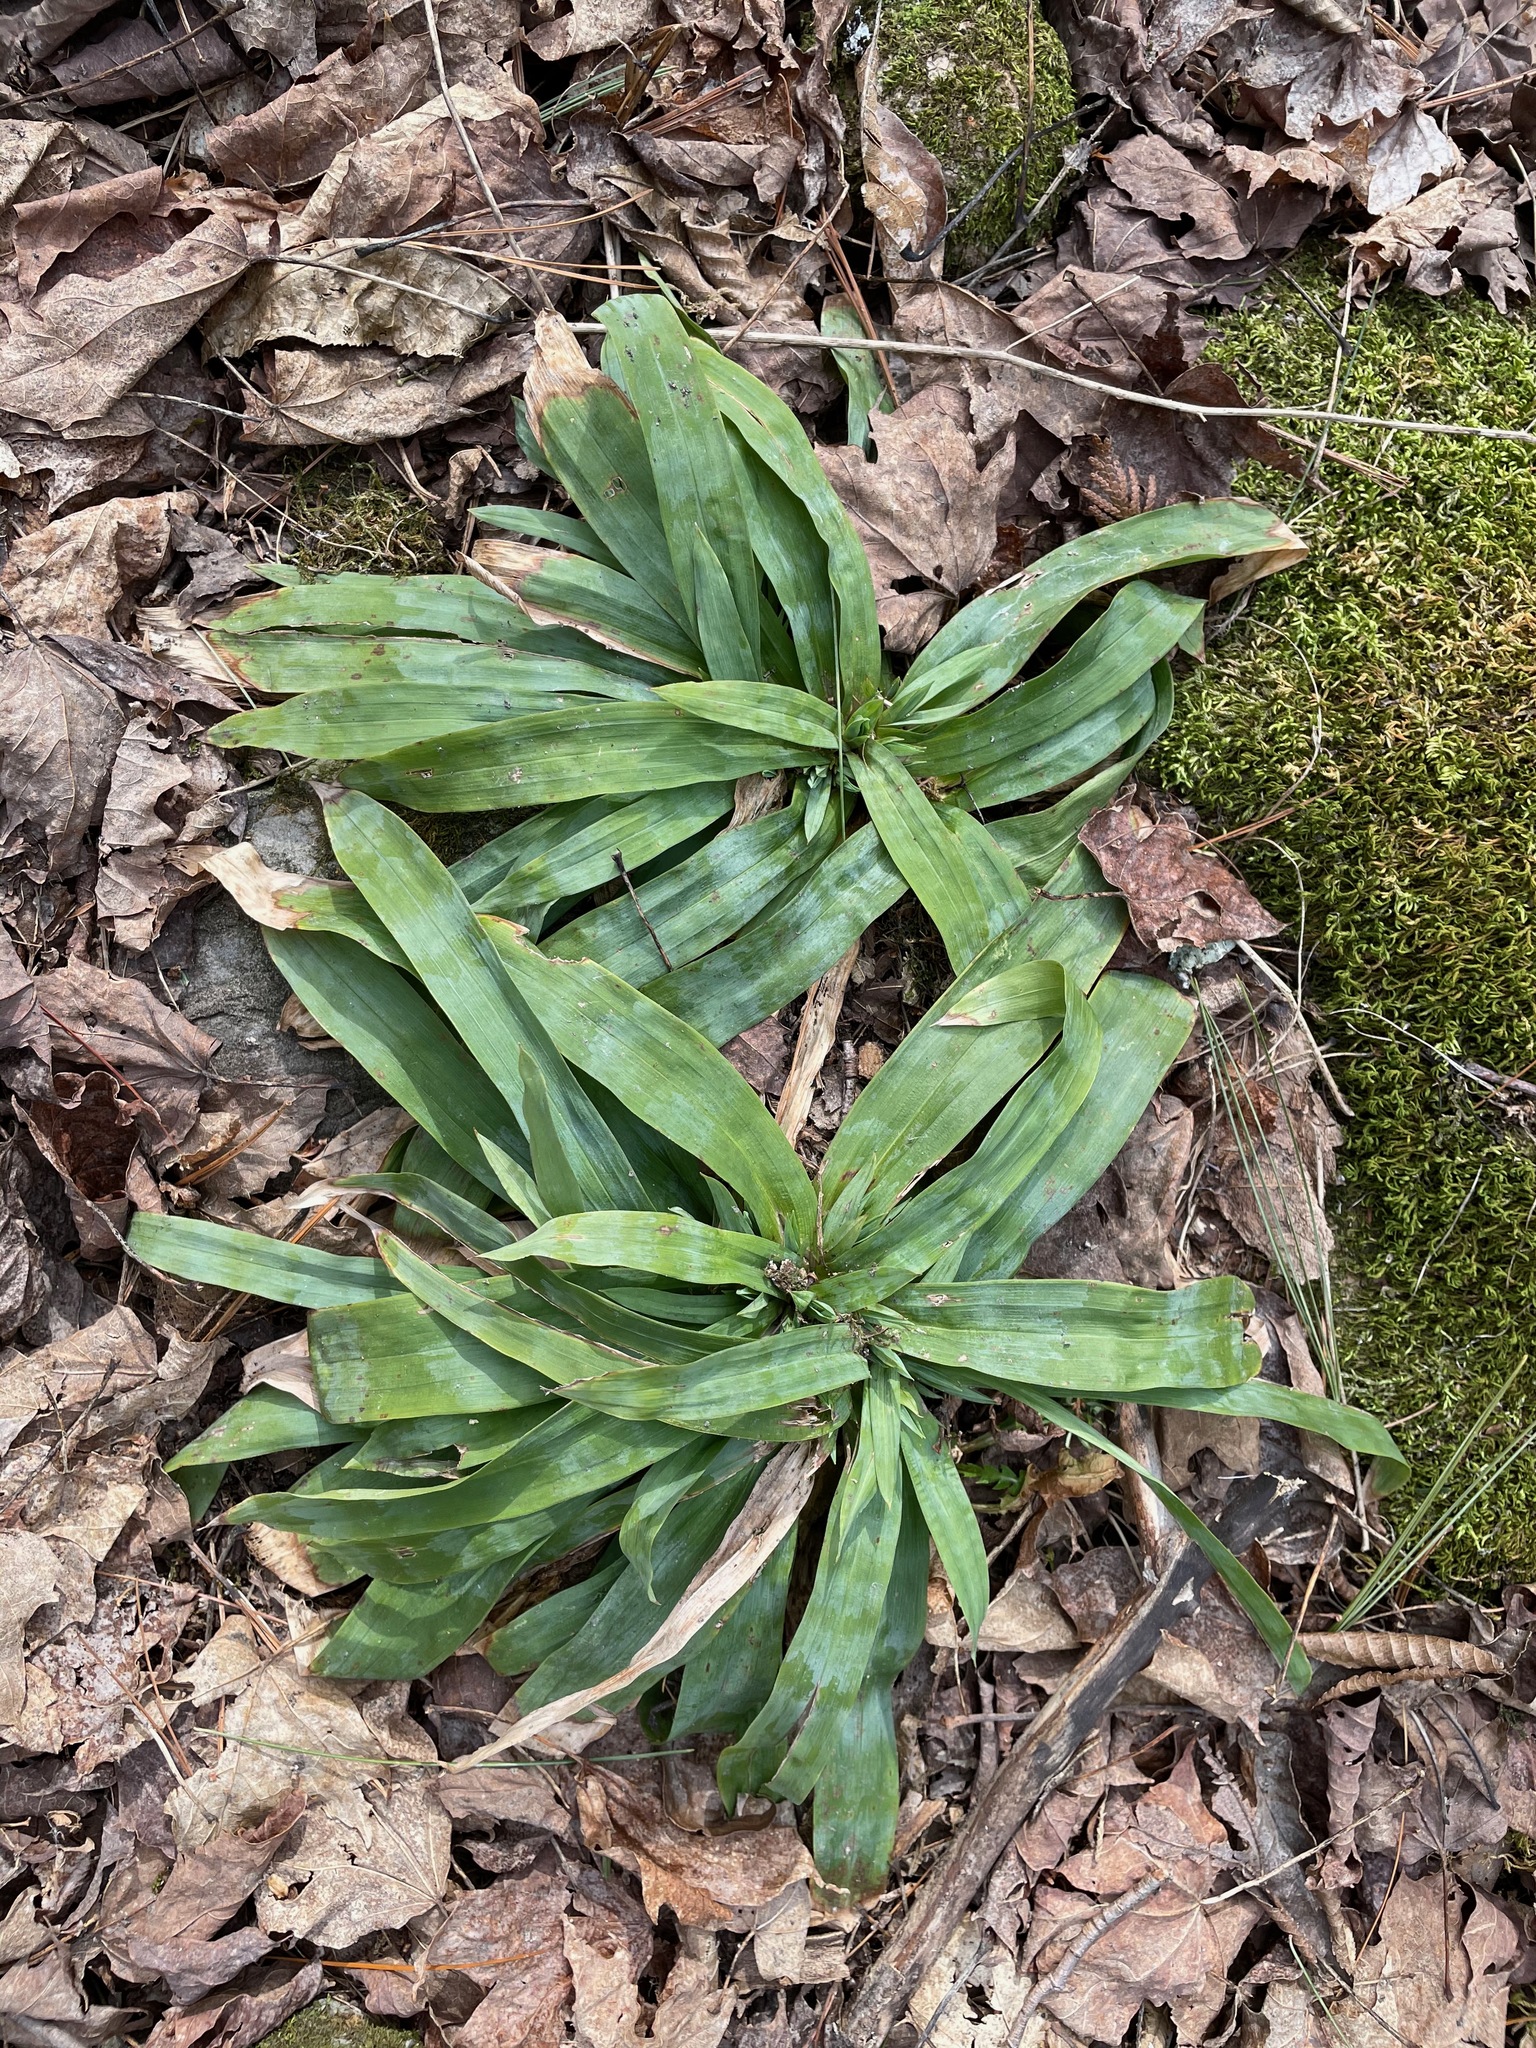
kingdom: Plantae
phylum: Tracheophyta
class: Liliopsida
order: Poales
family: Cyperaceae
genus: Carex
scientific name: Carex platyphylla
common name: Broad-leaved sedge
